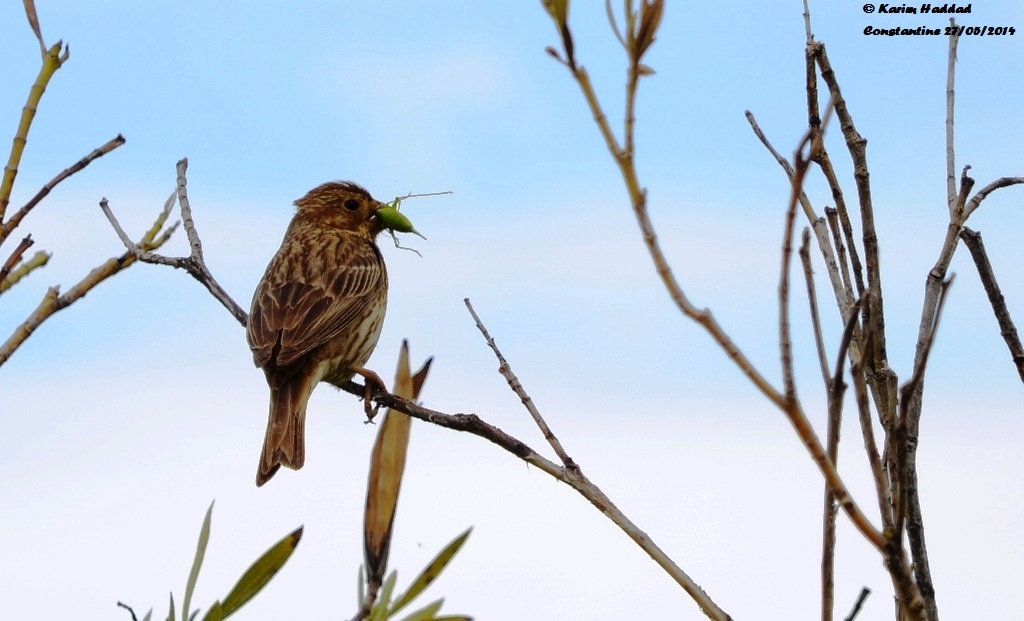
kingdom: Animalia
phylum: Chordata
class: Aves
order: Passeriformes
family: Emberizidae
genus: Emberiza
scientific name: Emberiza calandra
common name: Corn bunting
